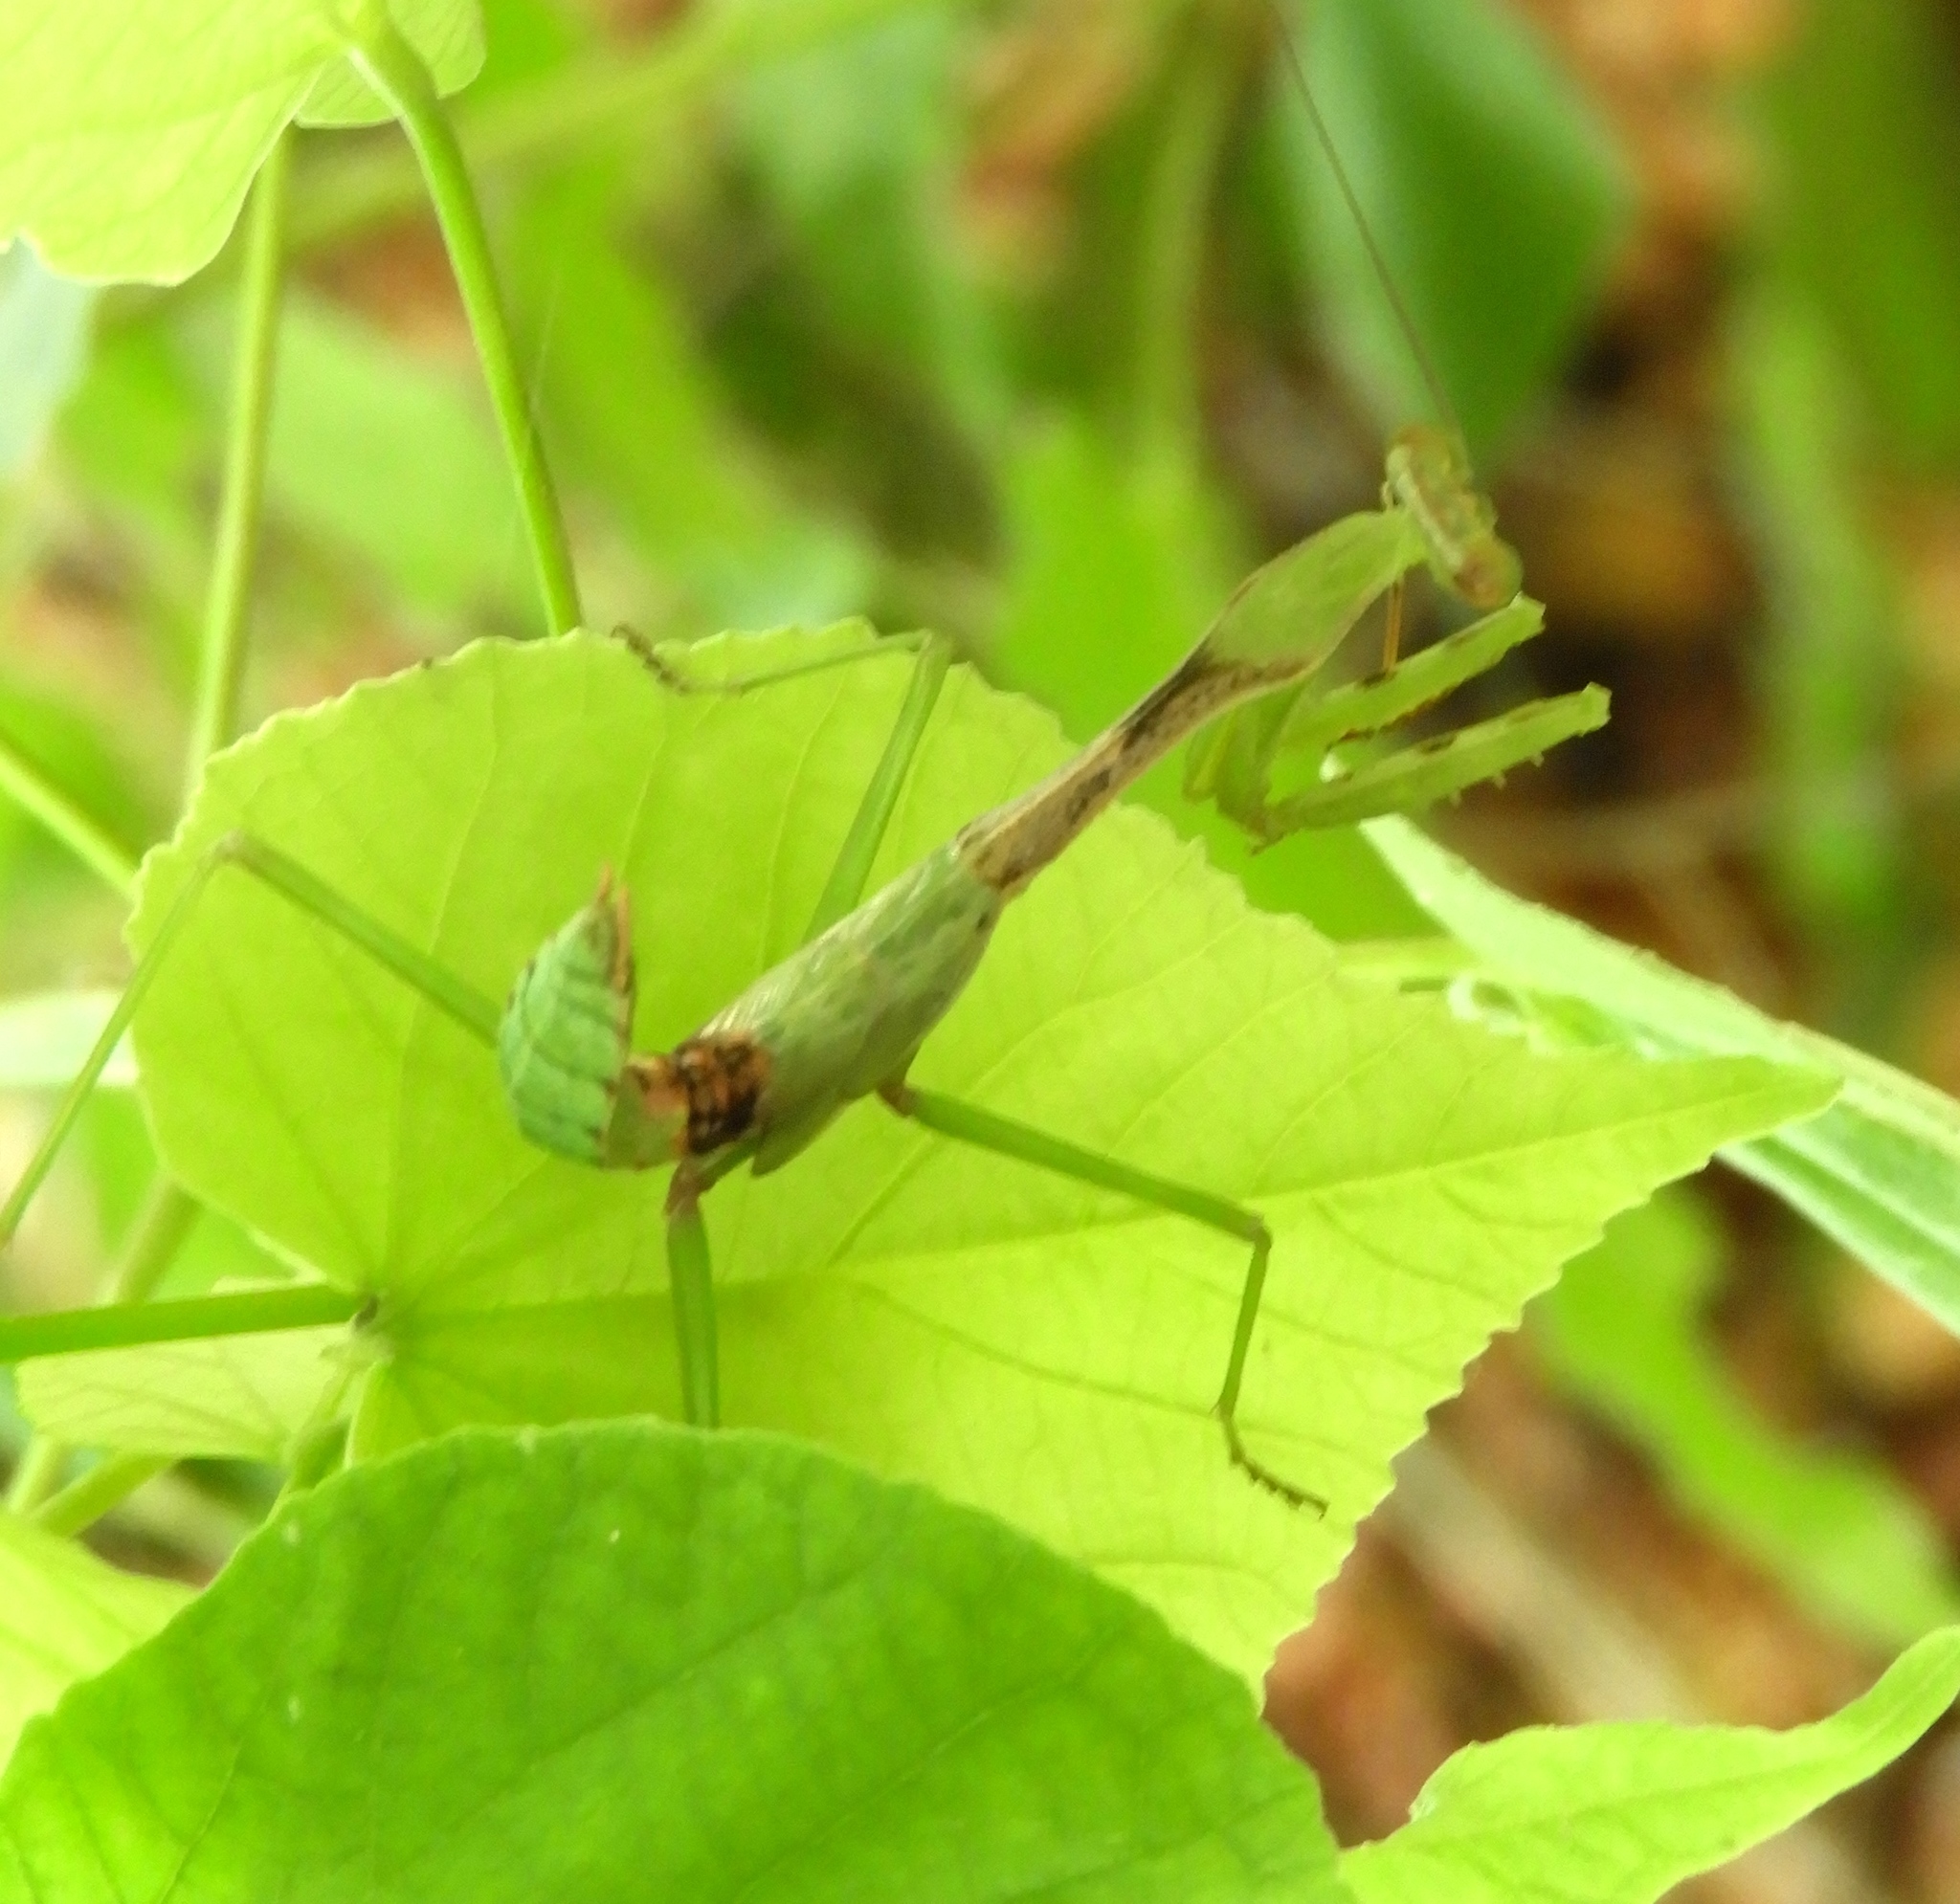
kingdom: Animalia
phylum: Arthropoda
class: Insecta
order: Mantodea
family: Mantidae
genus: Stagmomantis
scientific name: Stagmomantis
